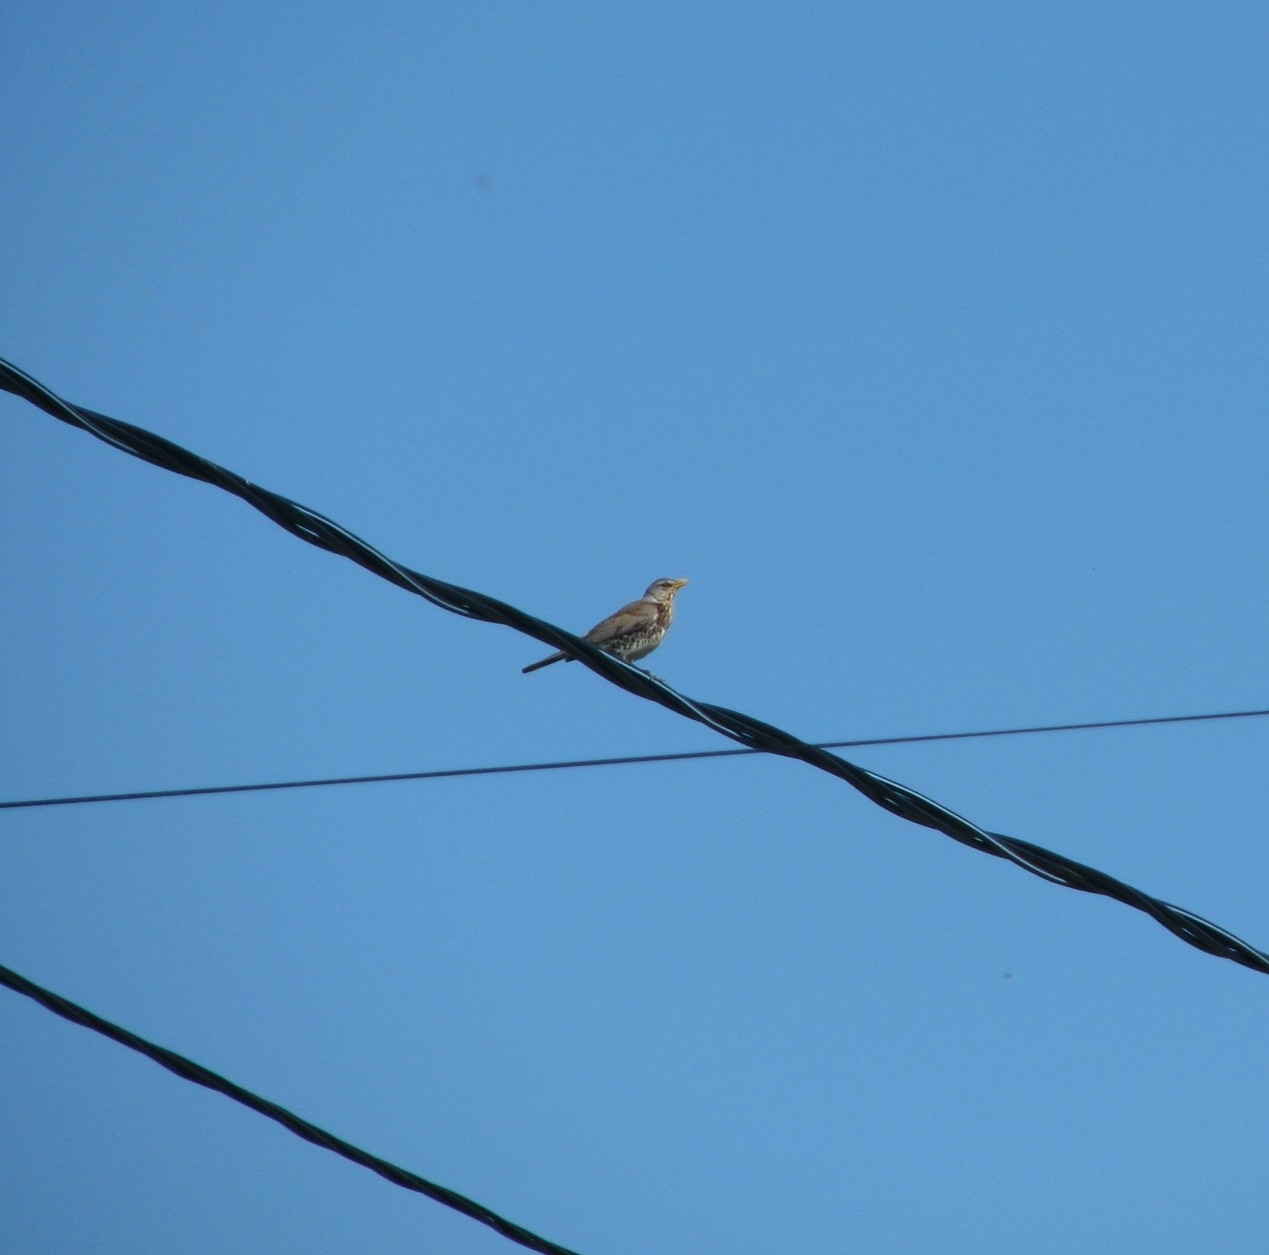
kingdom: Animalia
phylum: Chordata
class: Aves
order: Passeriformes
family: Turdidae
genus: Turdus
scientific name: Turdus pilaris
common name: Fieldfare
